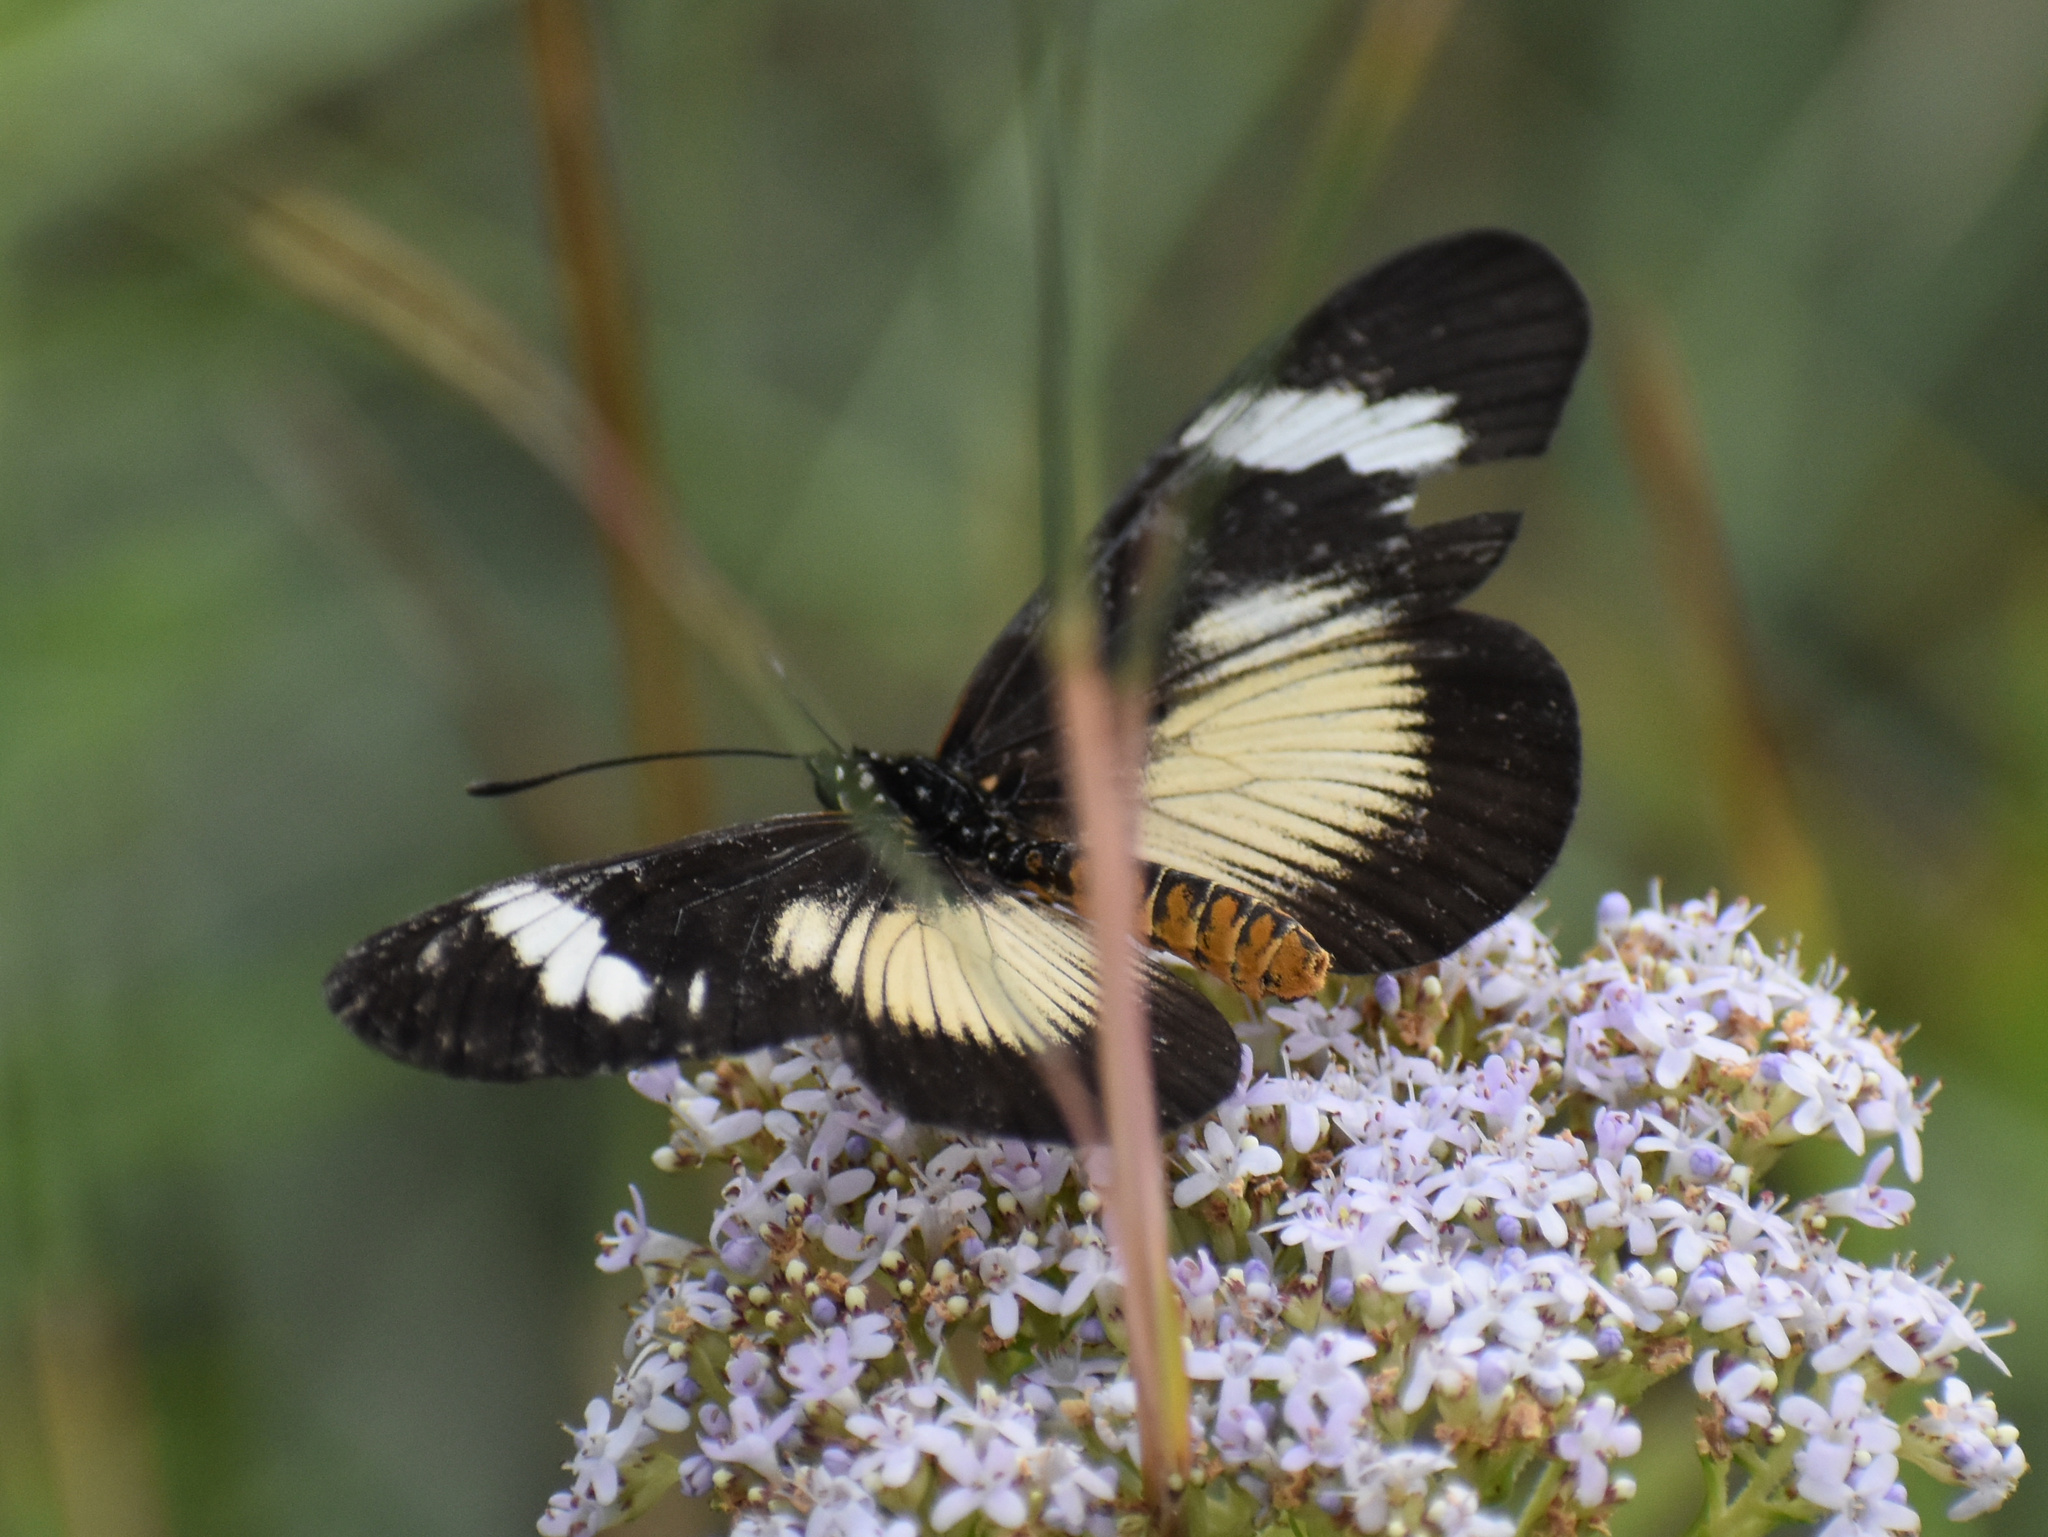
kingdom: Animalia
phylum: Arthropoda
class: Insecta
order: Lepidoptera
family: Nymphalidae
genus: Acraea
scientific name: Acraea esebria
